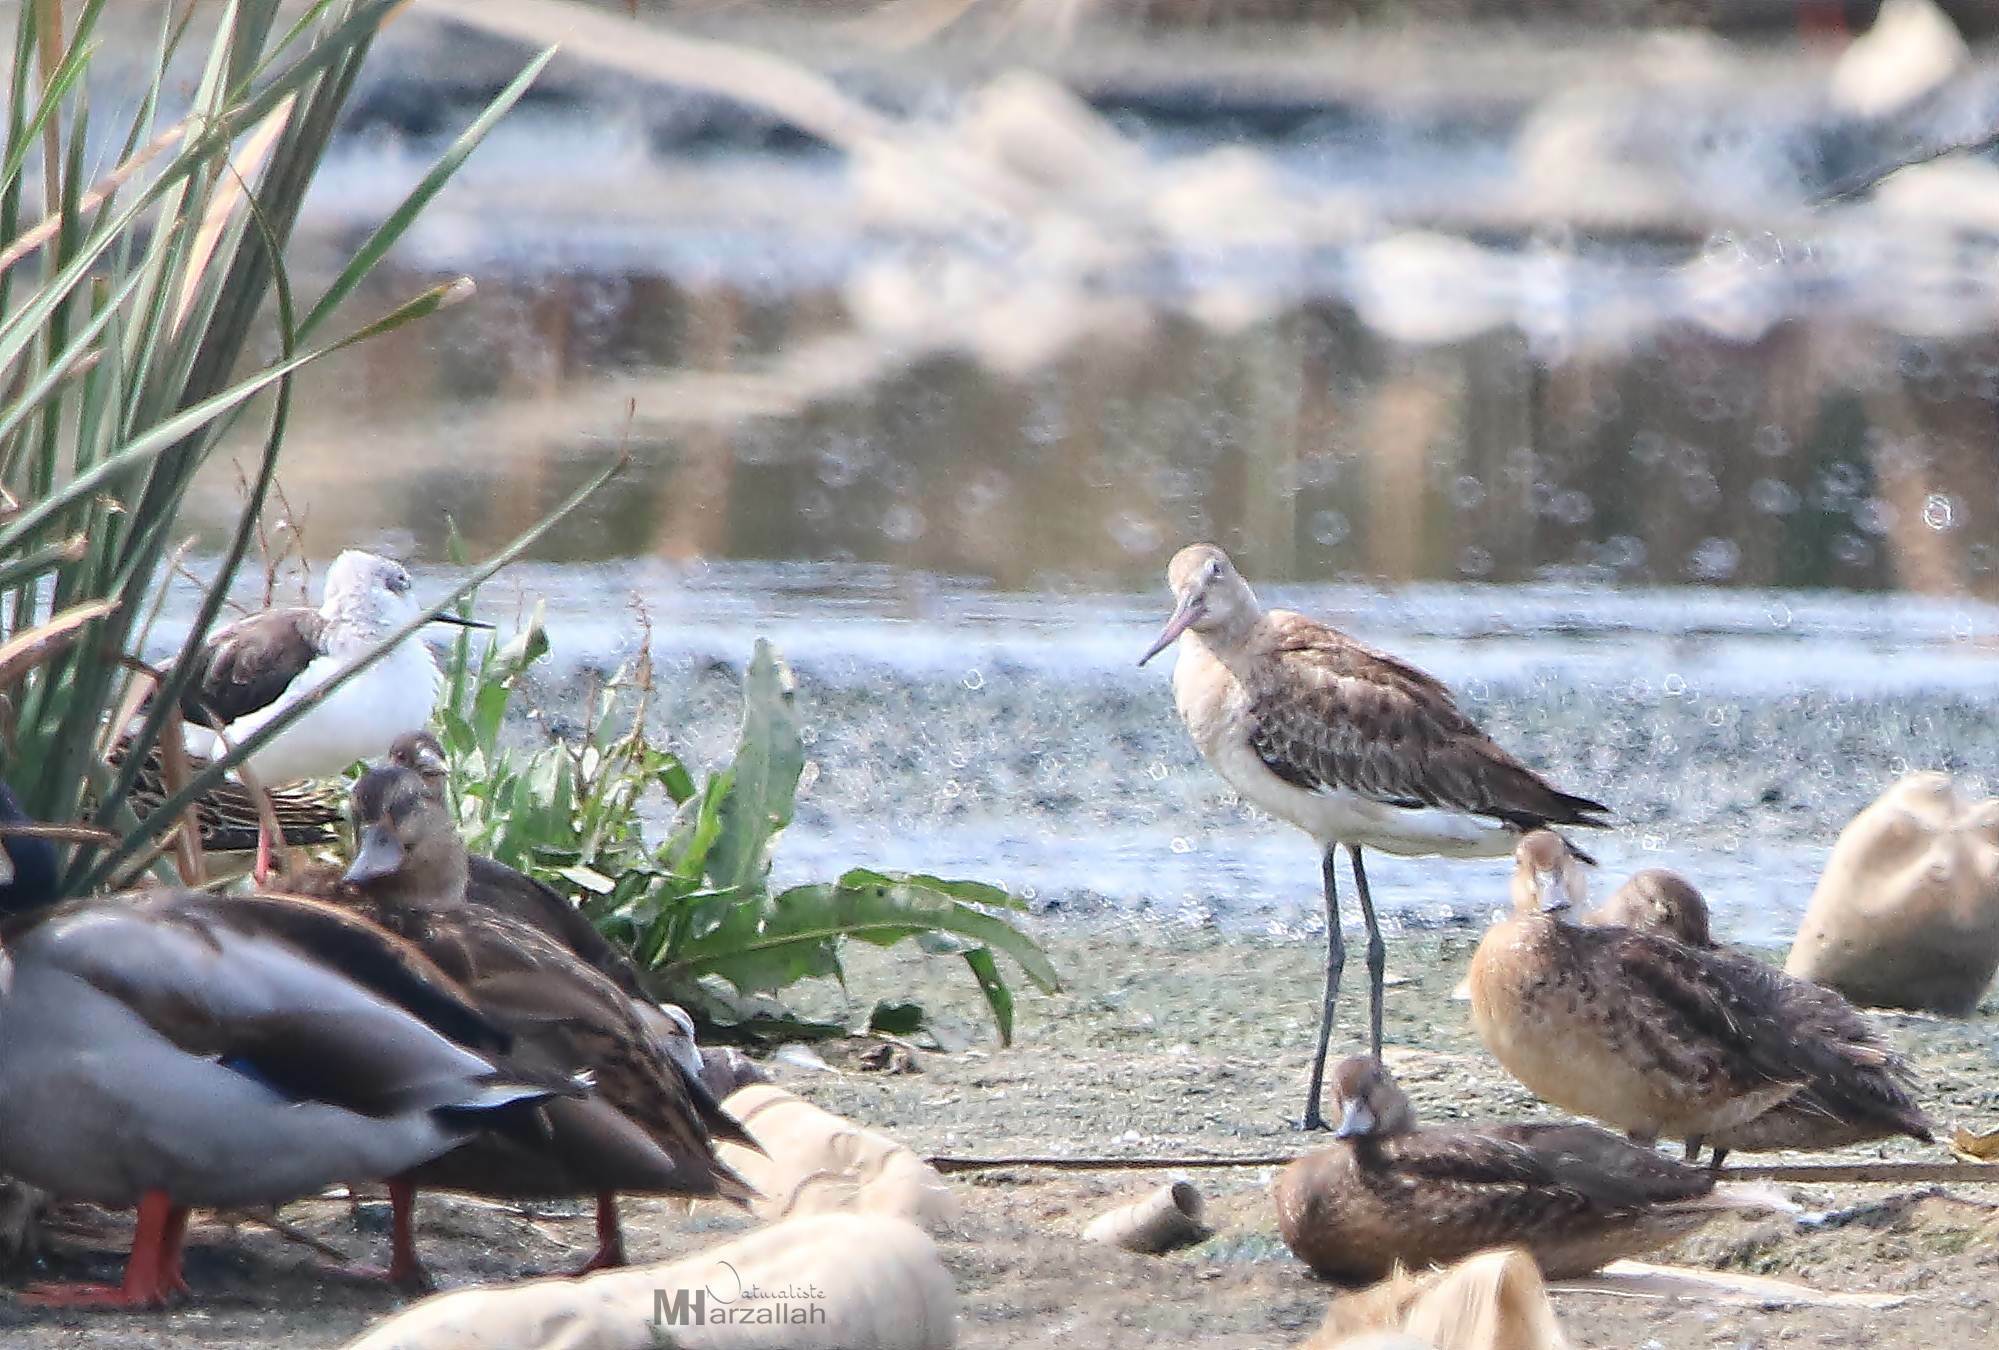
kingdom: Animalia
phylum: Chordata
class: Aves
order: Charadriiformes
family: Scolopacidae
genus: Limosa
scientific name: Limosa limosa
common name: Black-tailed godwit
